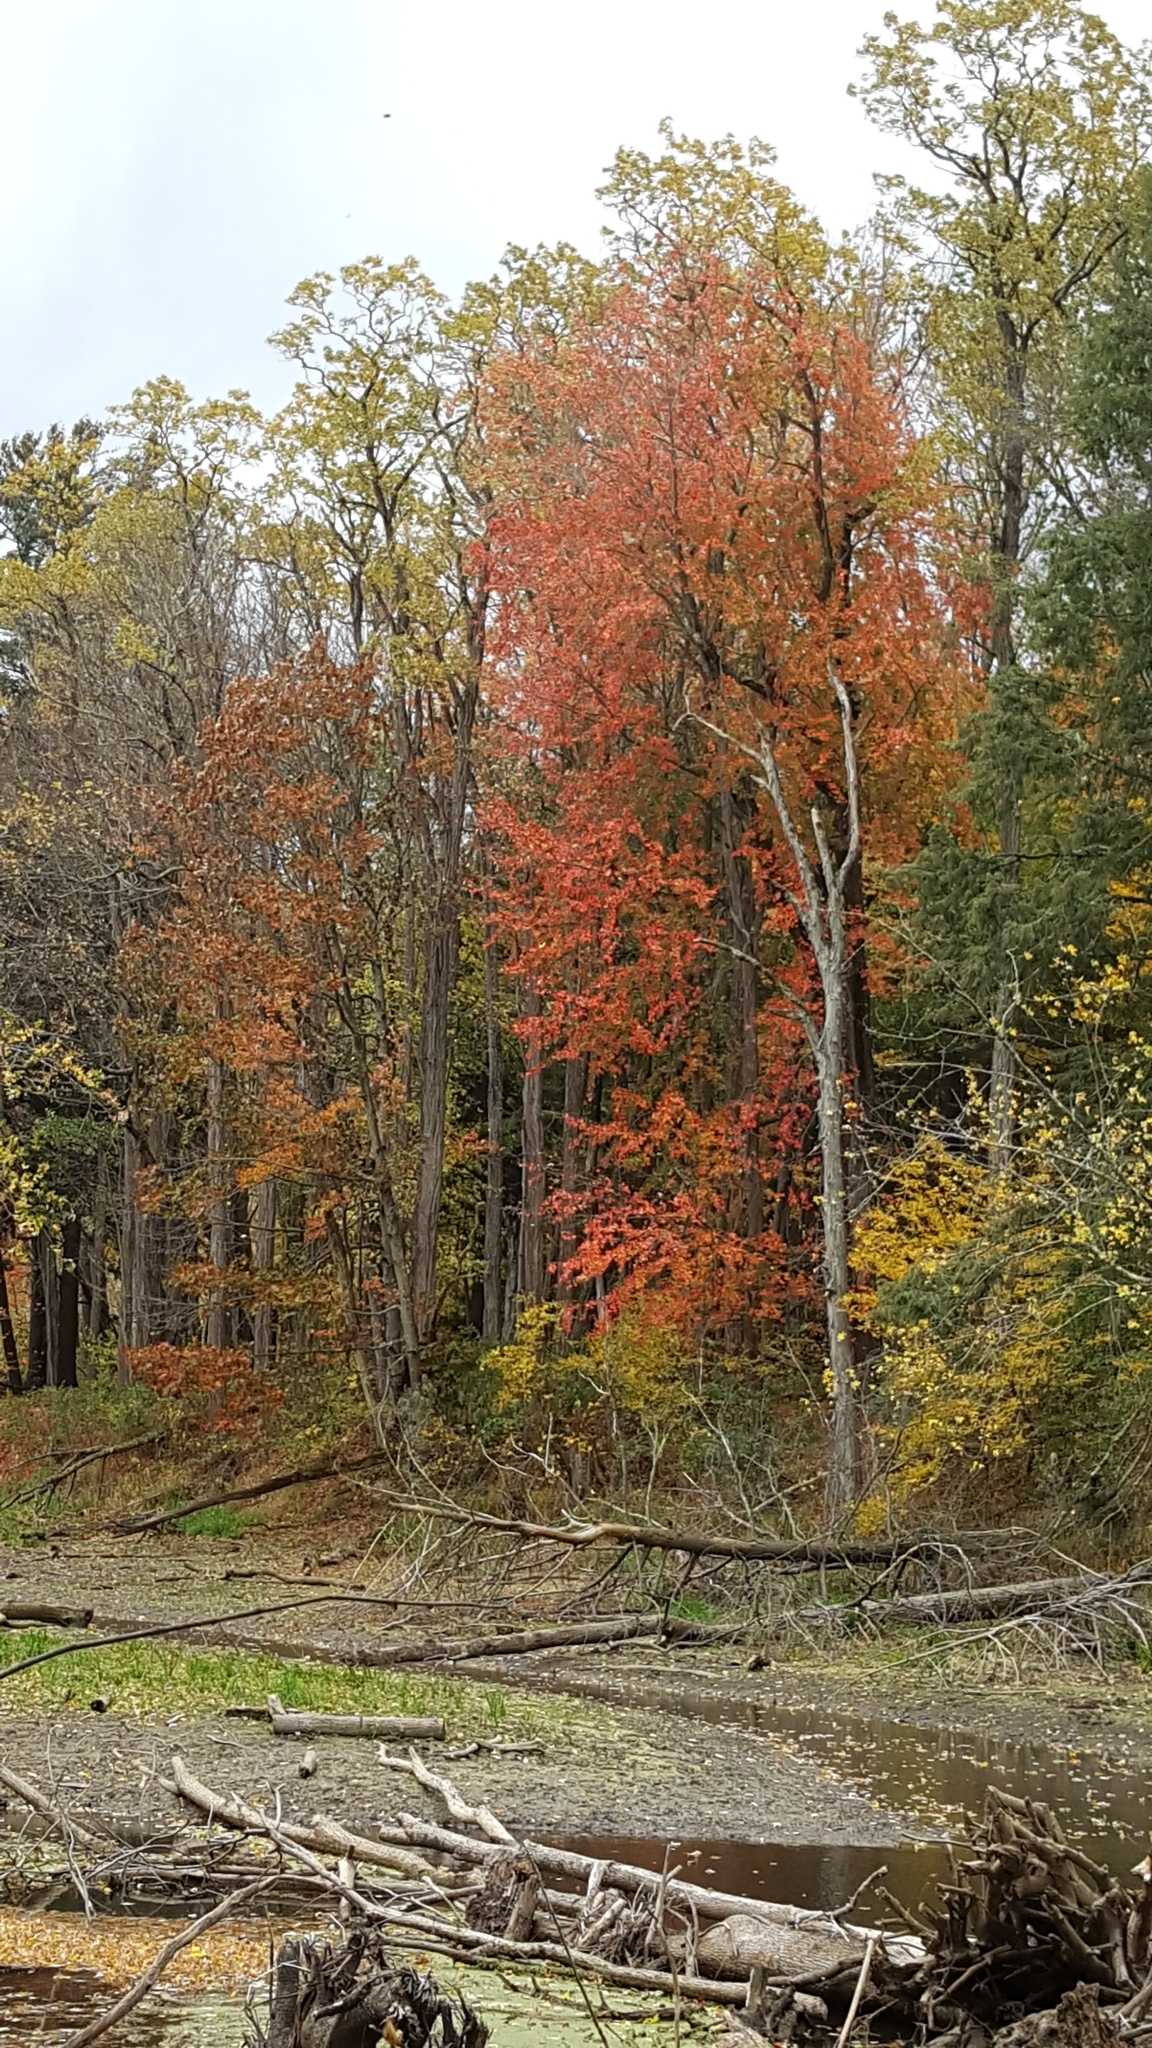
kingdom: Plantae
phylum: Tracheophyta
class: Magnoliopsida
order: Sapindales
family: Sapindaceae
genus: Acer
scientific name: Acer rubrum
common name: Red maple
